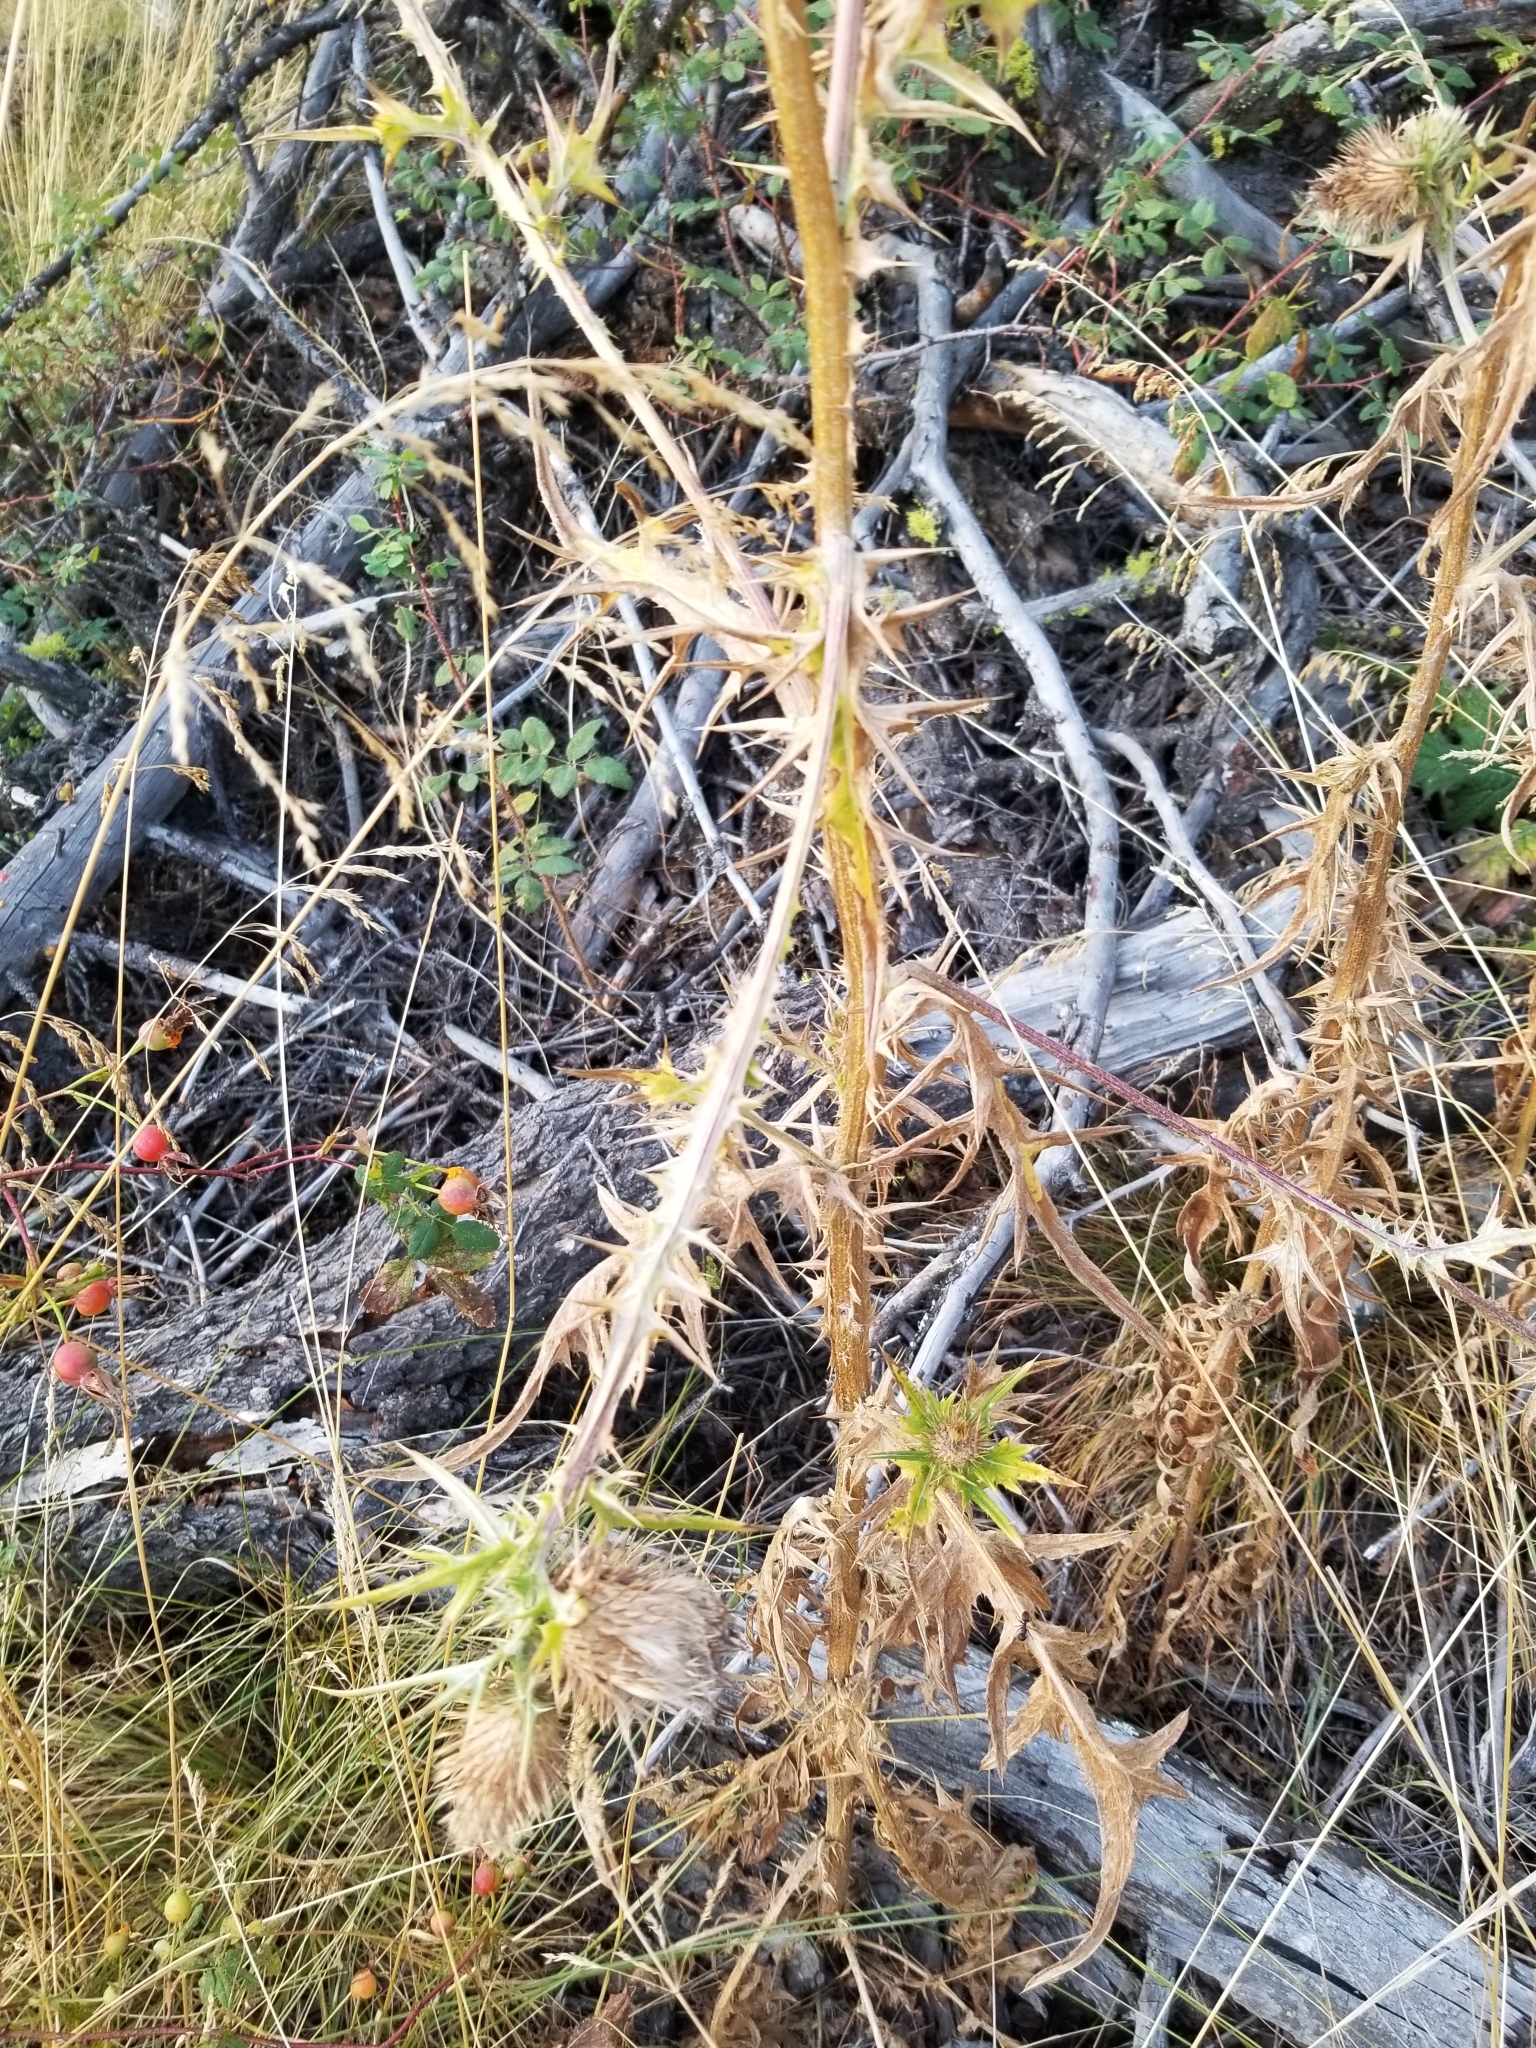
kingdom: Plantae
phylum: Tracheophyta
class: Magnoliopsida
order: Asterales
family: Asteraceae
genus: Cirsium
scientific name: Cirsium vulgare
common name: Bull thistle
